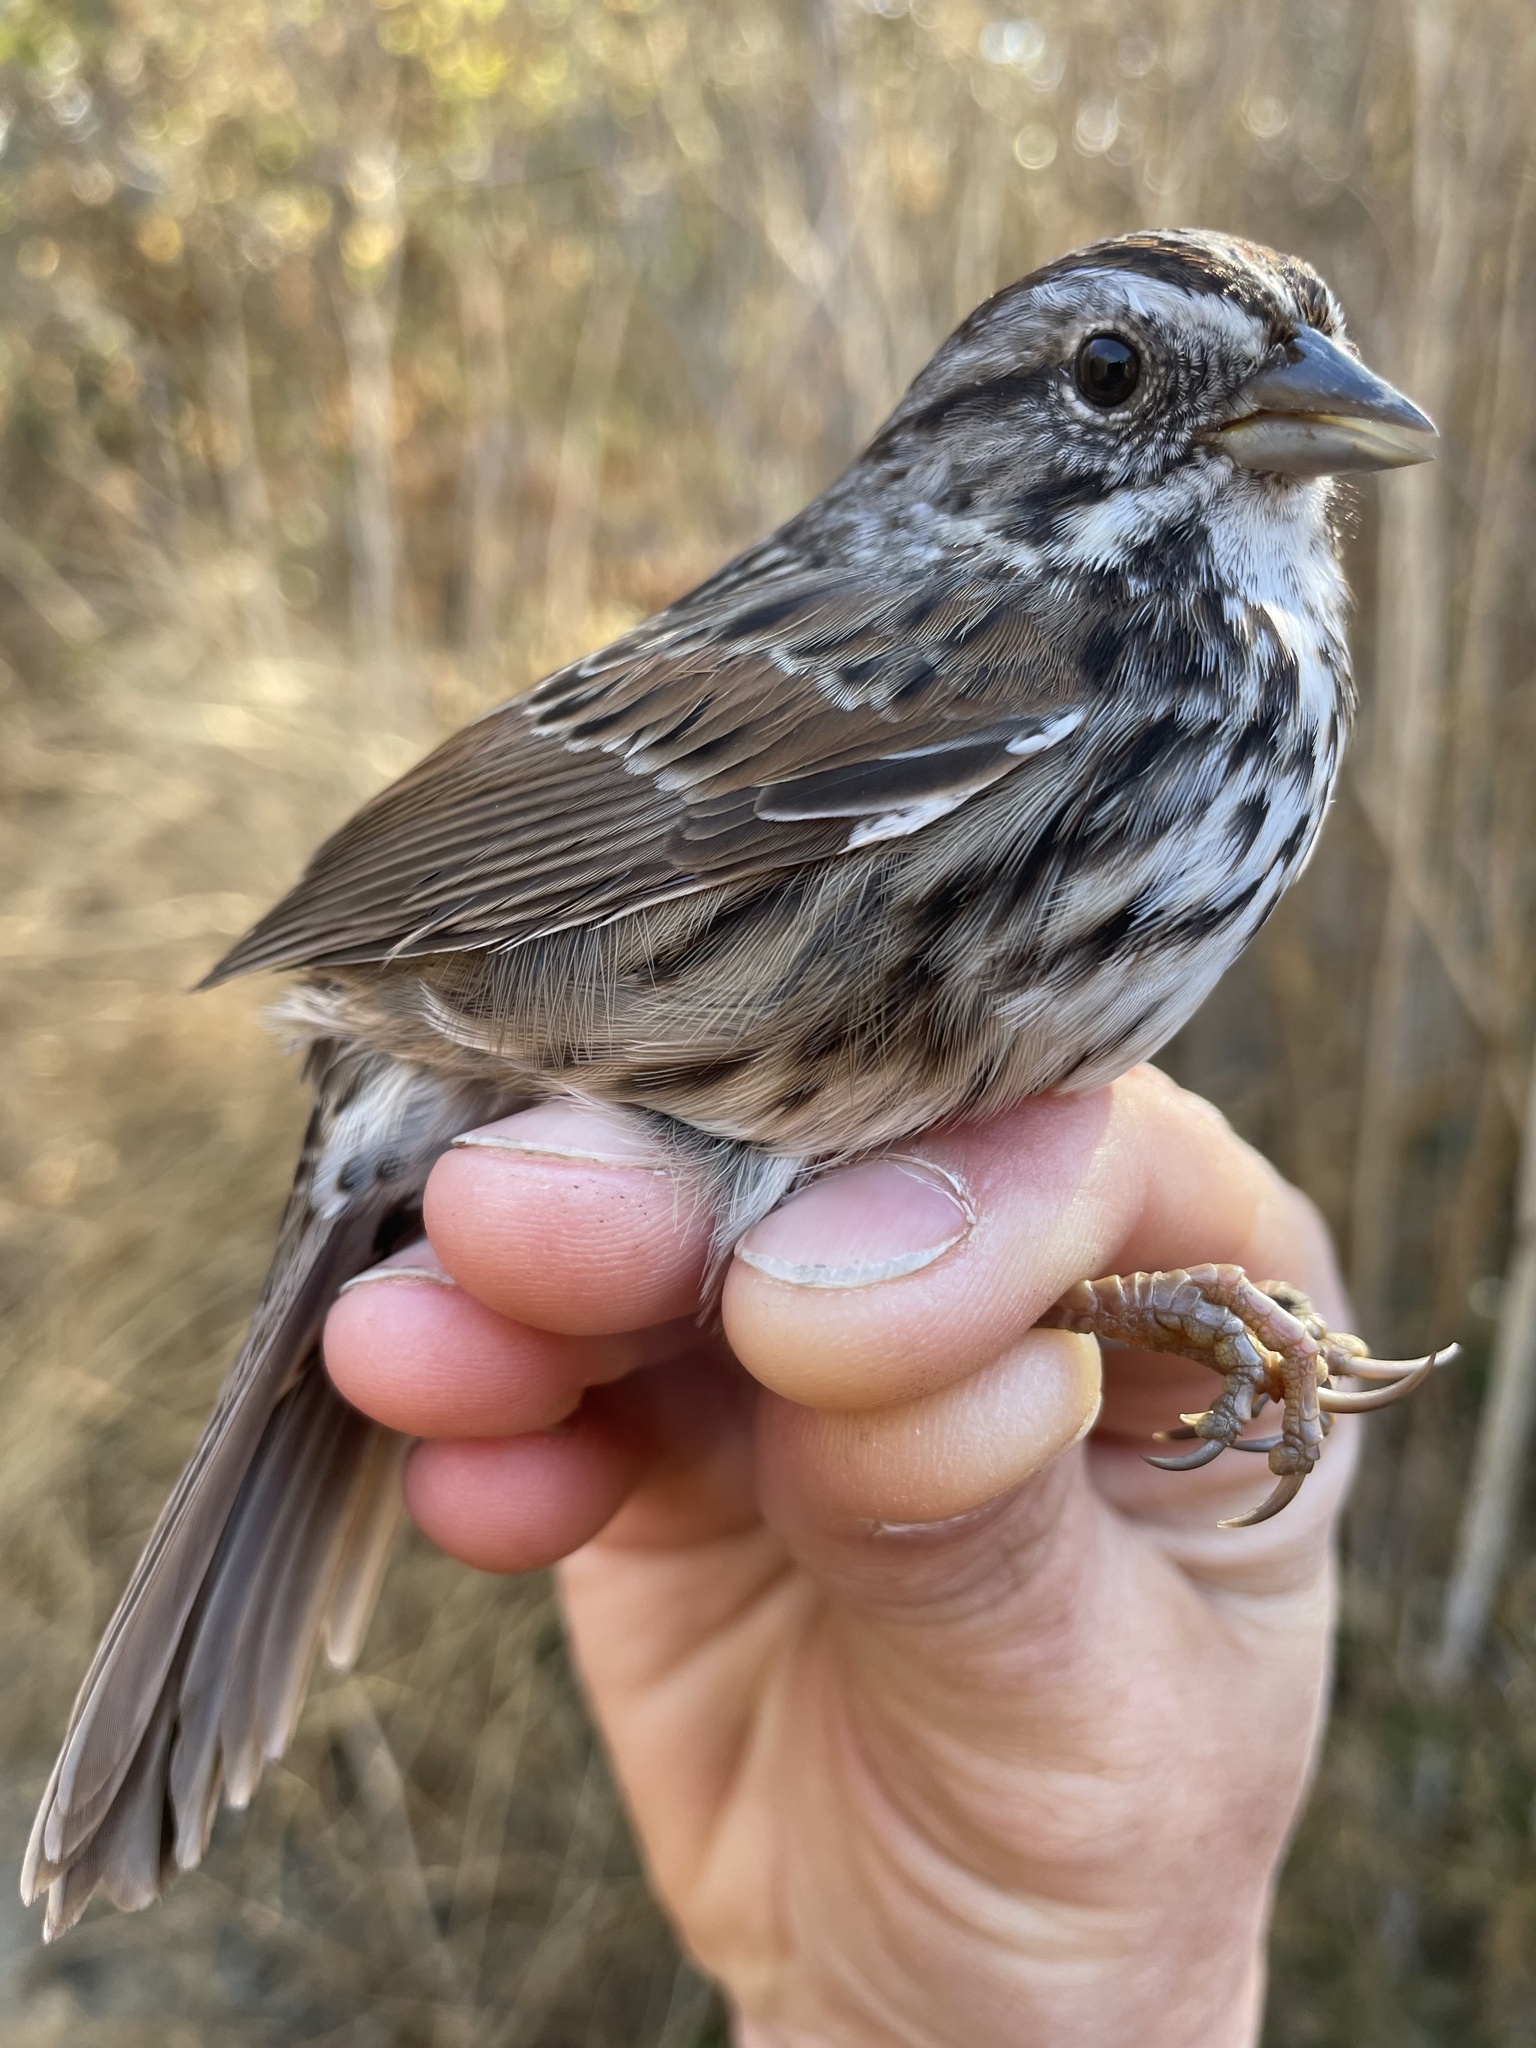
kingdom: Animalia
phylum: Chordata
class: Aves
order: Passeriformes
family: Passerellidae
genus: Melospiza
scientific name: Melospiza melodia
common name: Song sparrow
